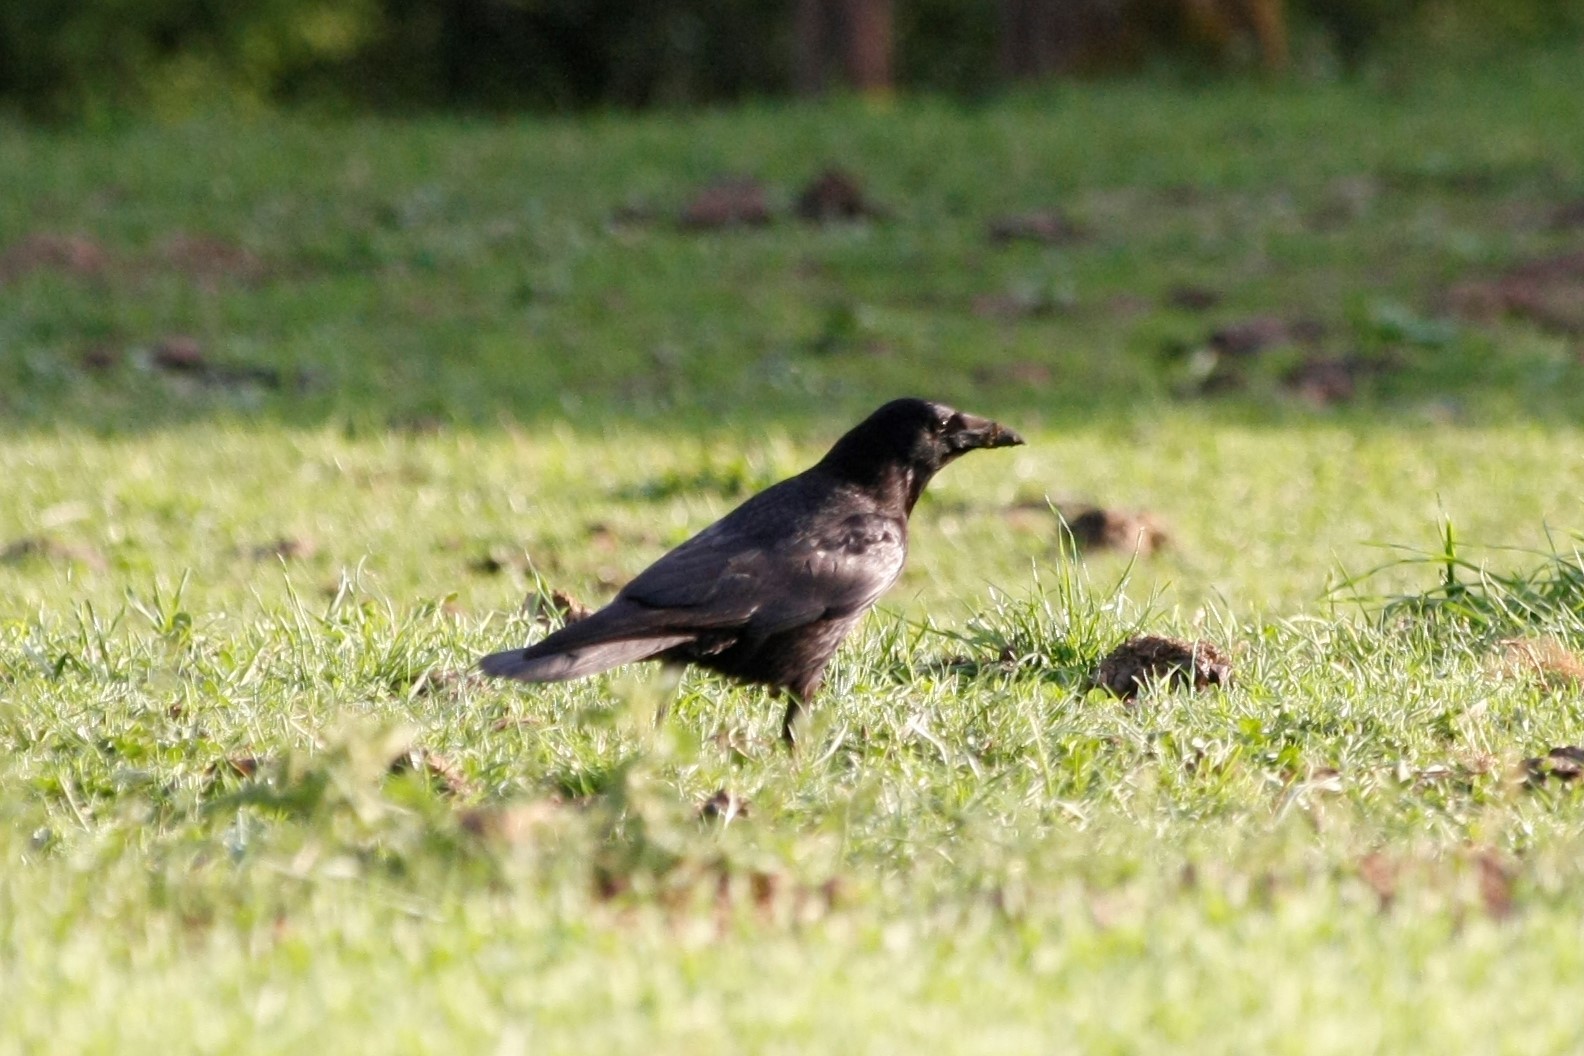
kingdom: Animalia
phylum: Chordata
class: Aves
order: Passeriformes
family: Corvidae
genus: Corvus
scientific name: Corvus corone
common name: Carrion crow
